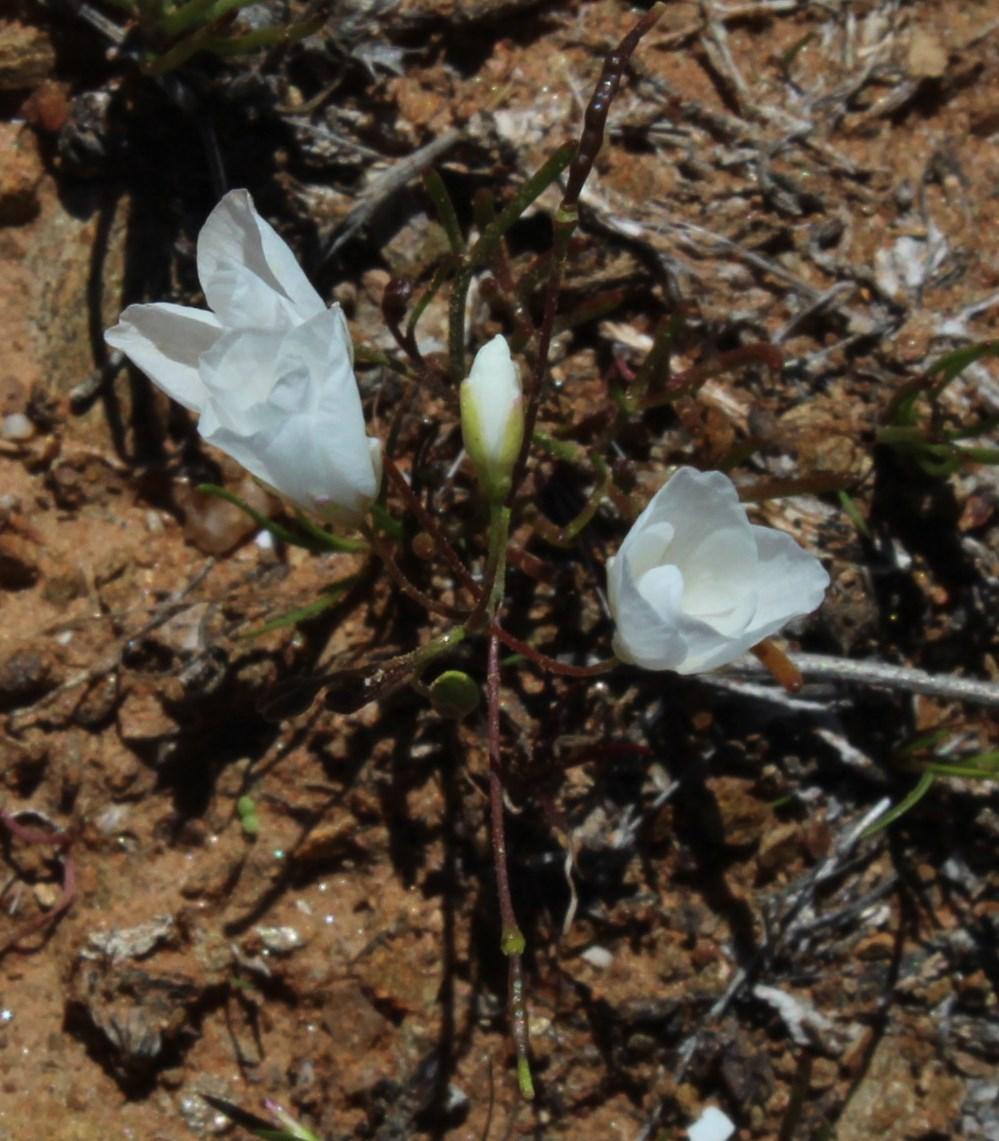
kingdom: Plantae
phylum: Tracheophyta
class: Magnoliopsida
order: Brassicales
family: Brassicaceae
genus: Heliophila
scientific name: Heliophila variabilis
